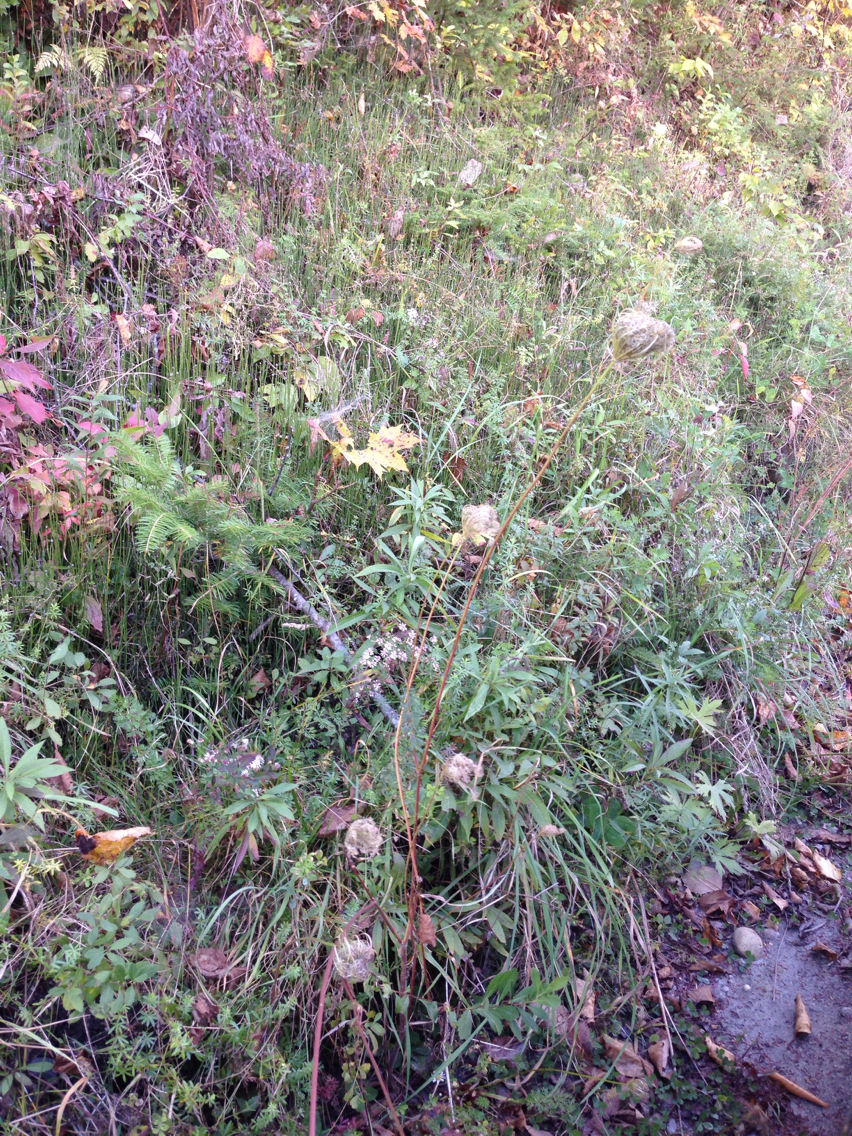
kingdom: Plantae
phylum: Tracheophyta
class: Magnoliopsida
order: Apiales
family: Apiaceae
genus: Daucus
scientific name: Daucus carota
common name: Wild carrot
